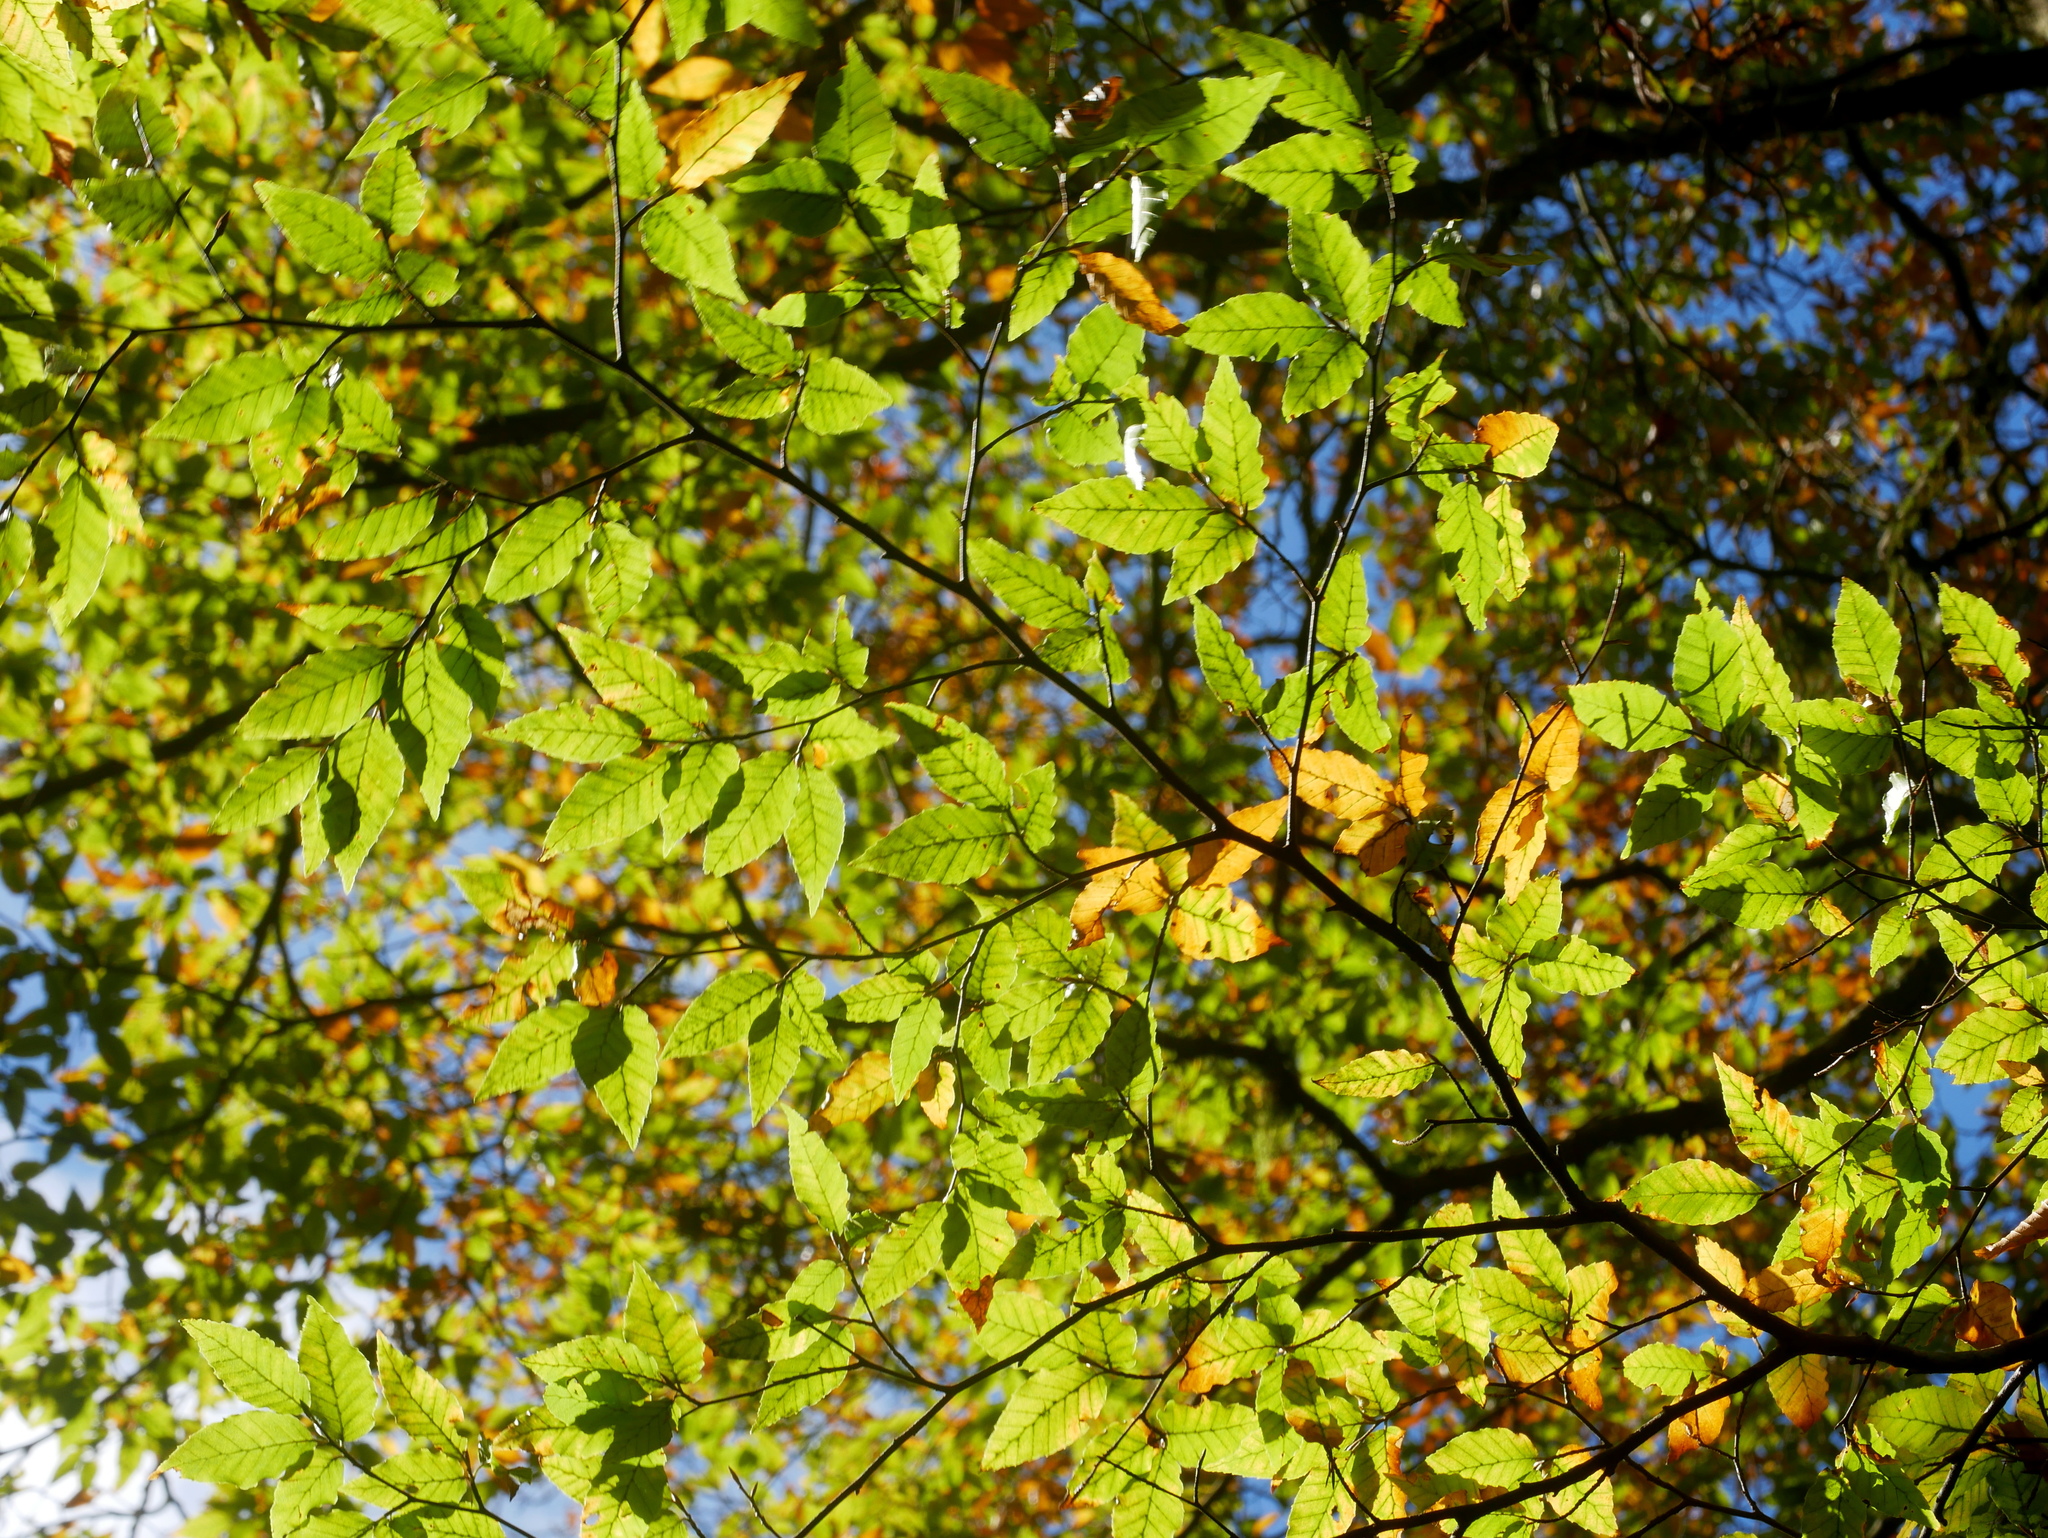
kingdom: Plantae
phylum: Tracheophyta
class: Magnoliopsida
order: Fagales
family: Fagaceae
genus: Fagus
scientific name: Fagus hayatae
